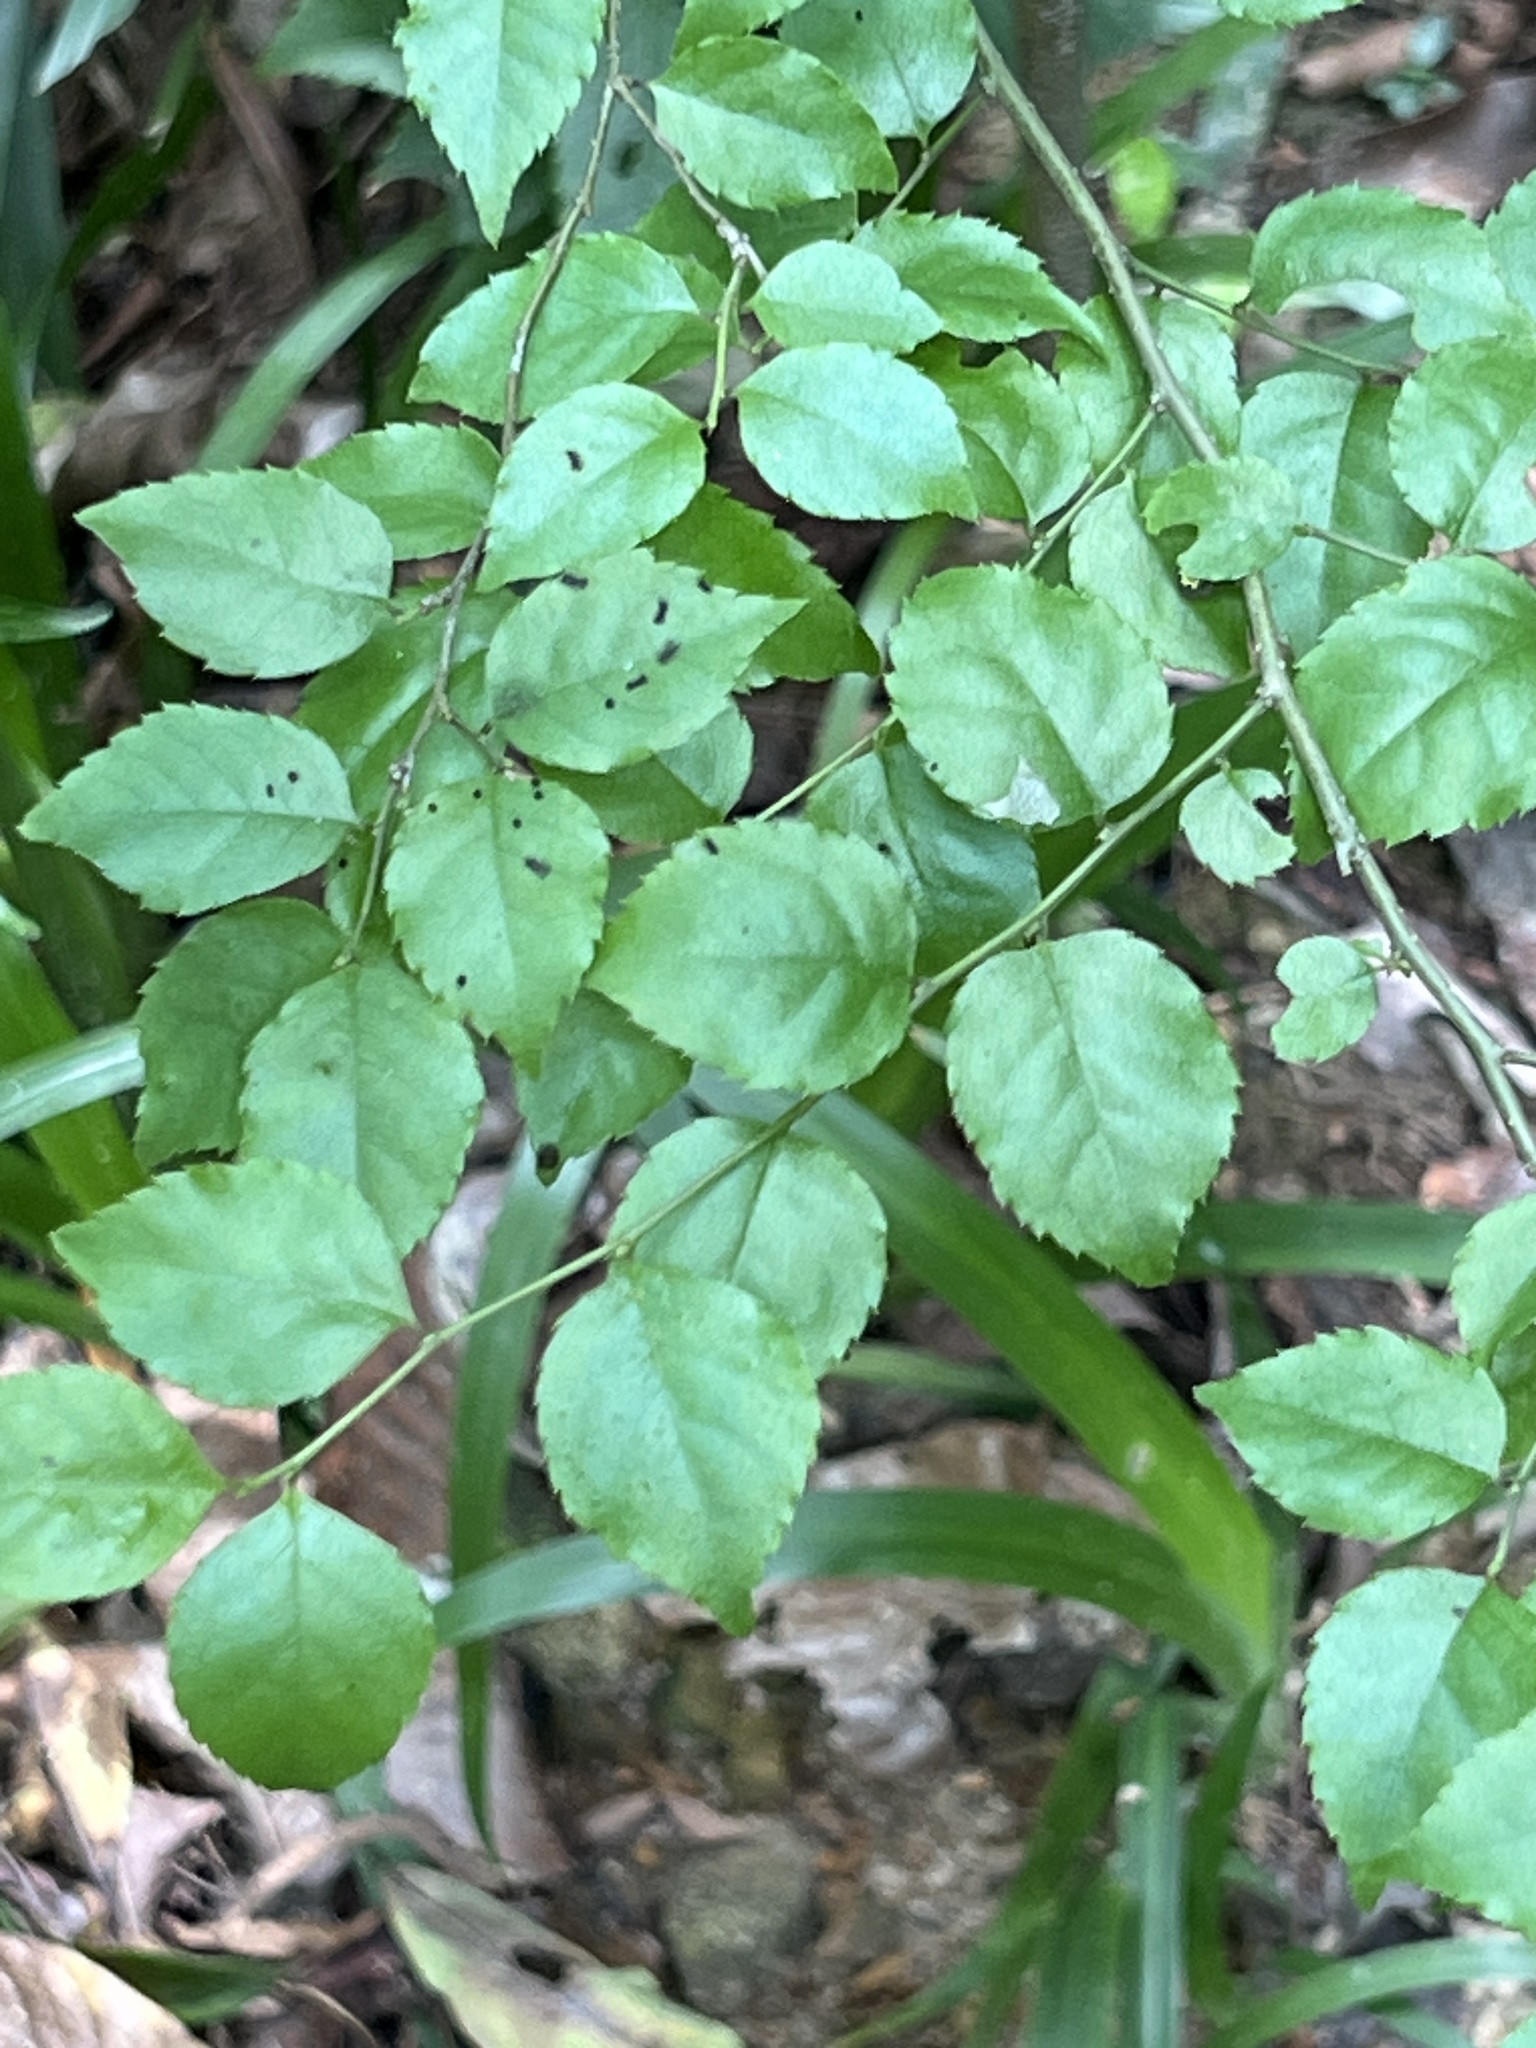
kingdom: Plantae
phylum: Tracheophyta
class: Magnoliopsida
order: Aquifoliales
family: Aquifoliaceae
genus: Ilex
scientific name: Ilex asprella
